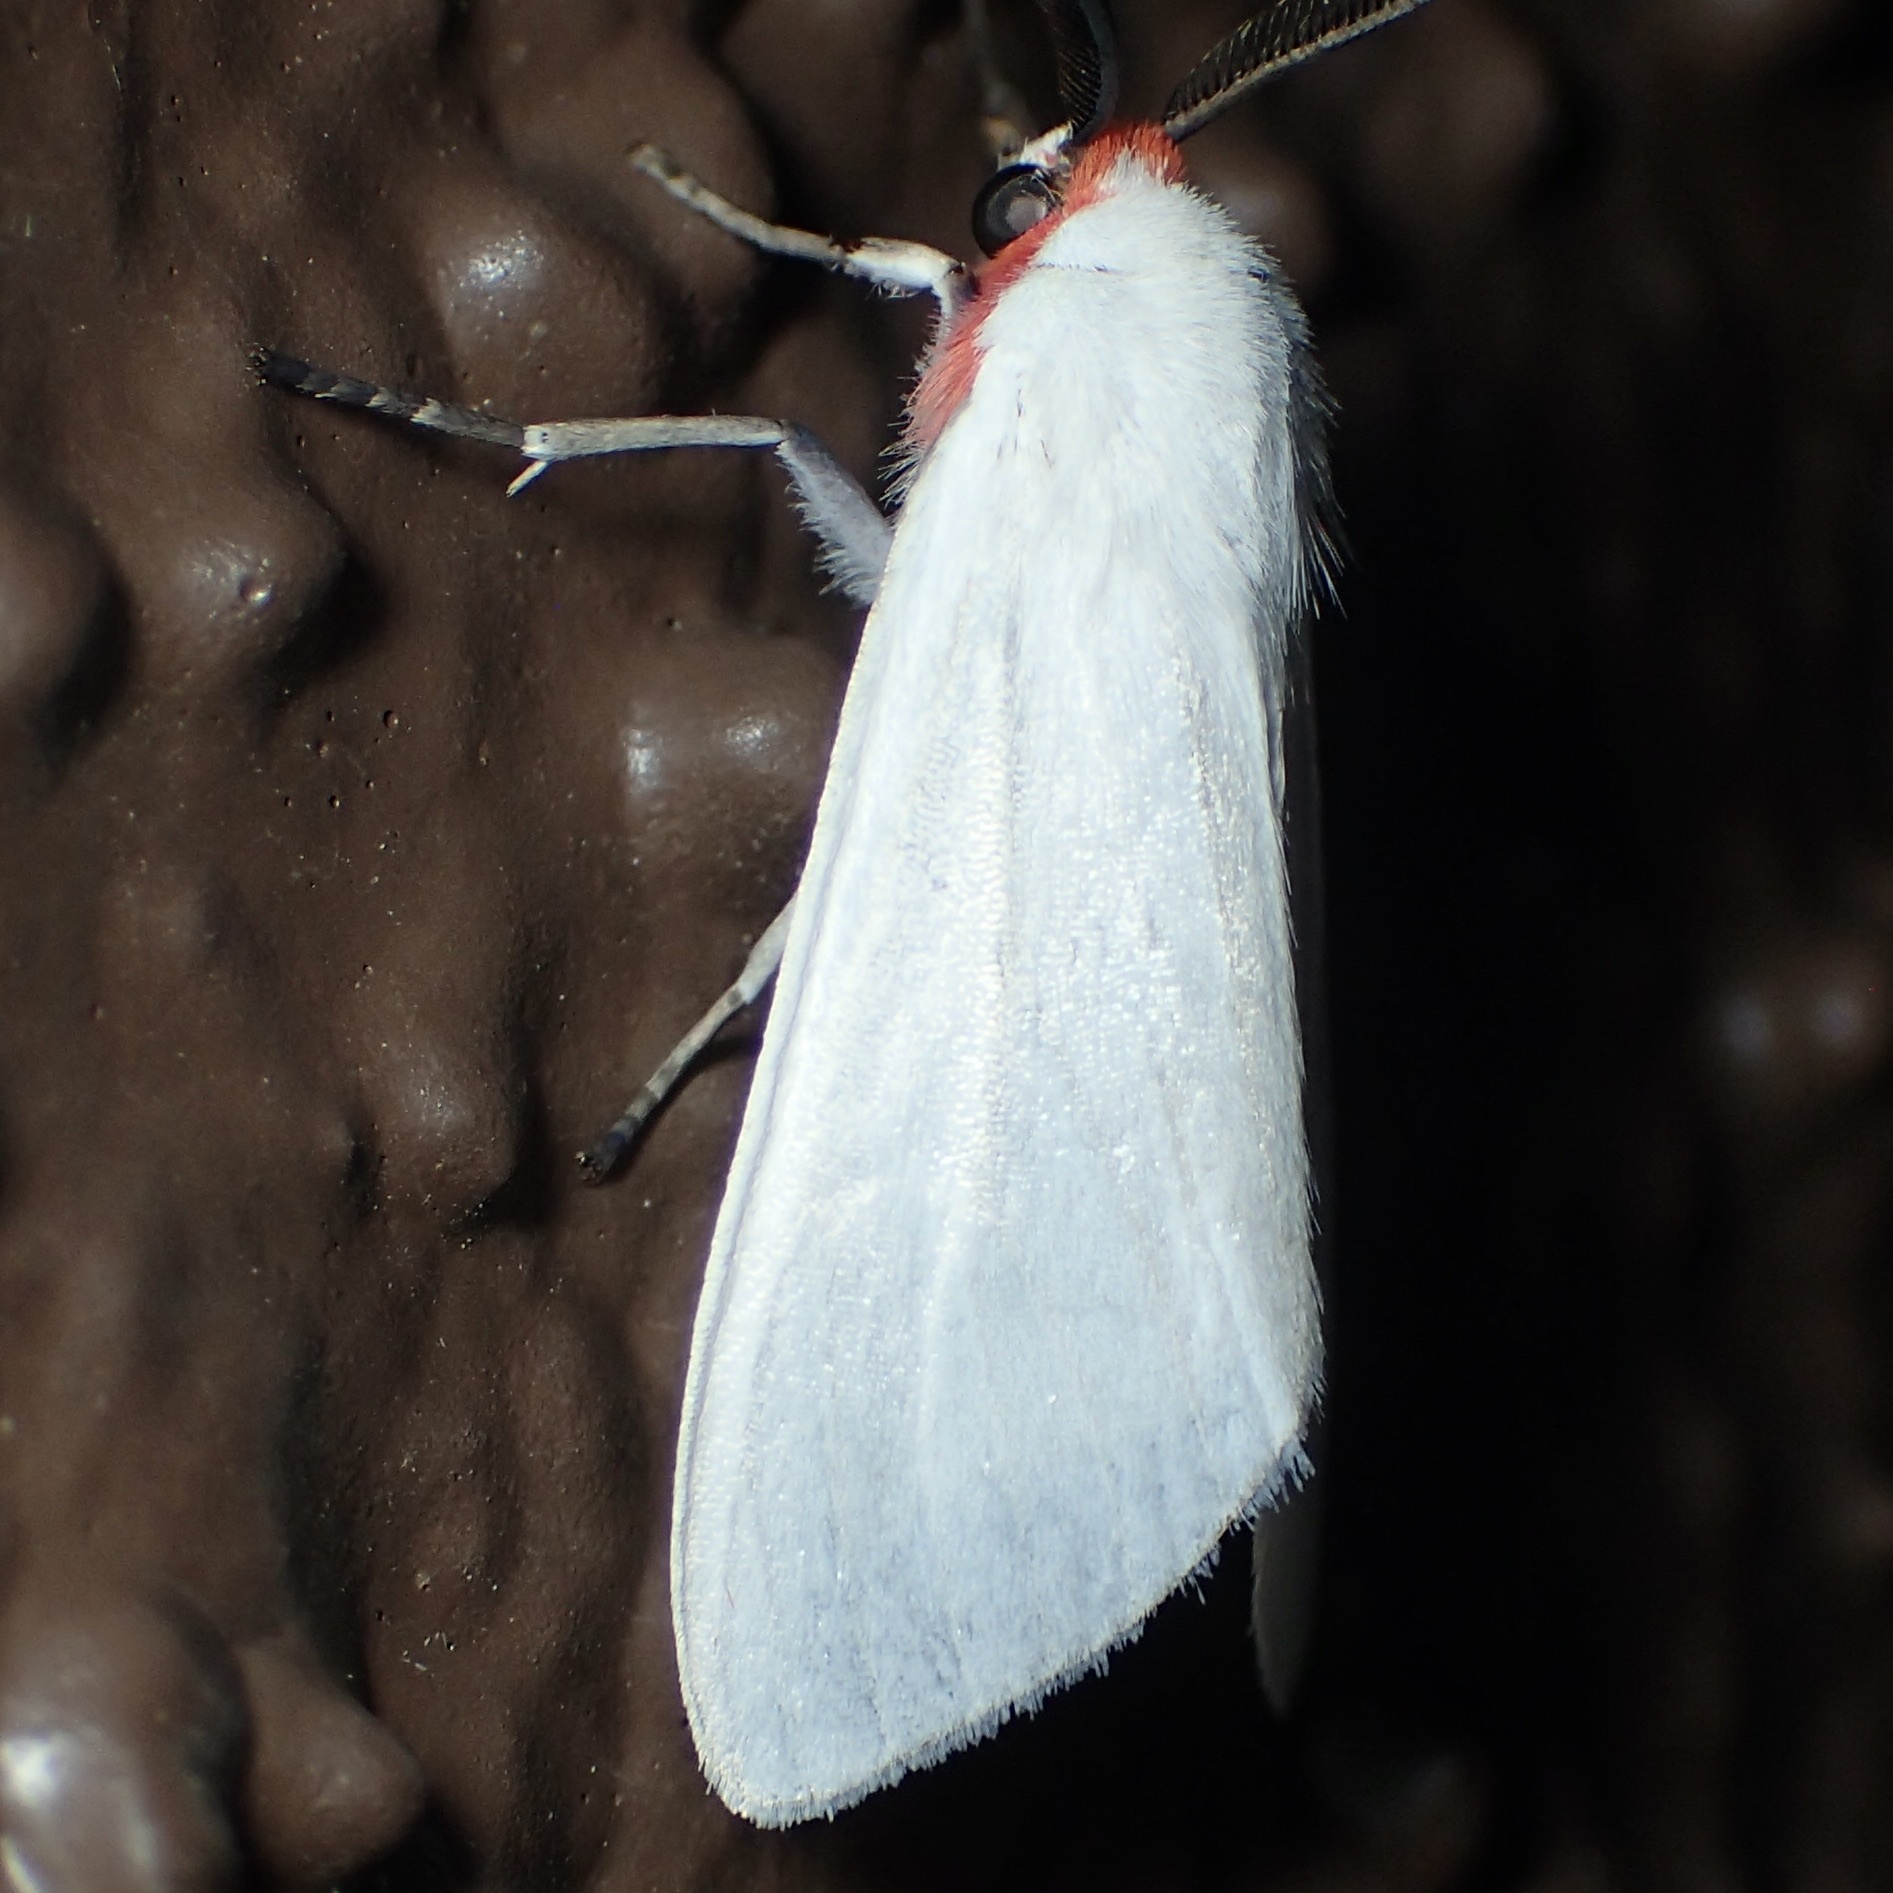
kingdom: Animalia
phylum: Arthropoda
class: Insecta
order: Lepidoptera
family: Erebidae
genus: Pygarctia
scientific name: Pygarctia roseicapitis
